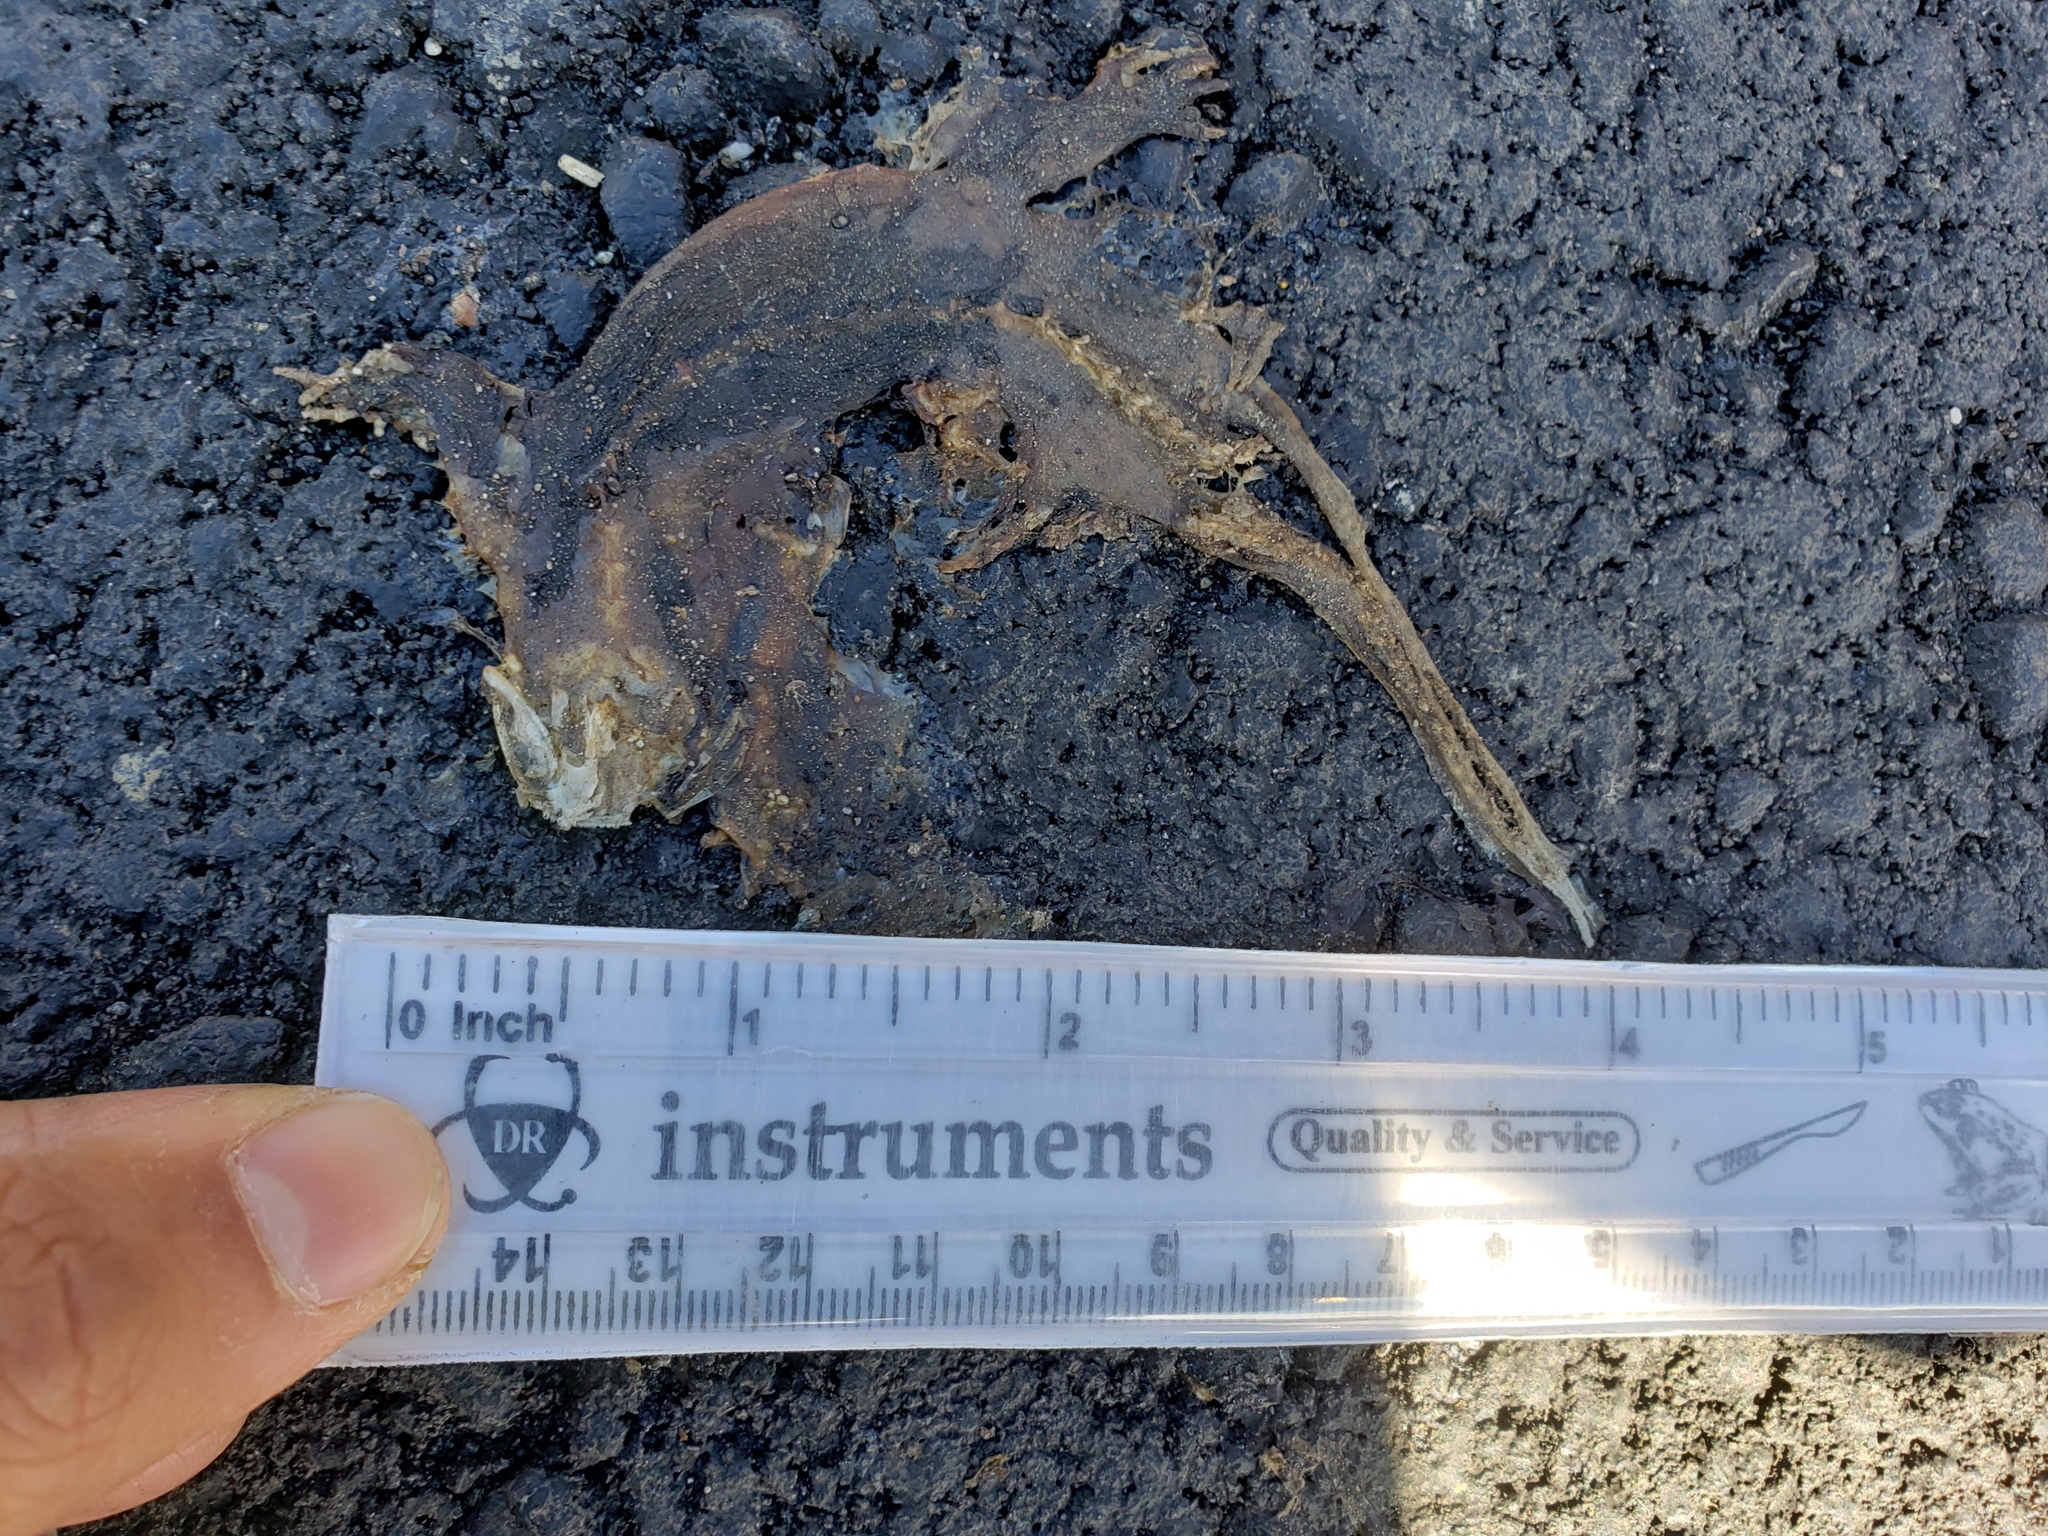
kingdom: Animalia
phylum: Chordata
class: Amphibia
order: Caudata
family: Salamandridae
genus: Taricha
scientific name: Taricha
